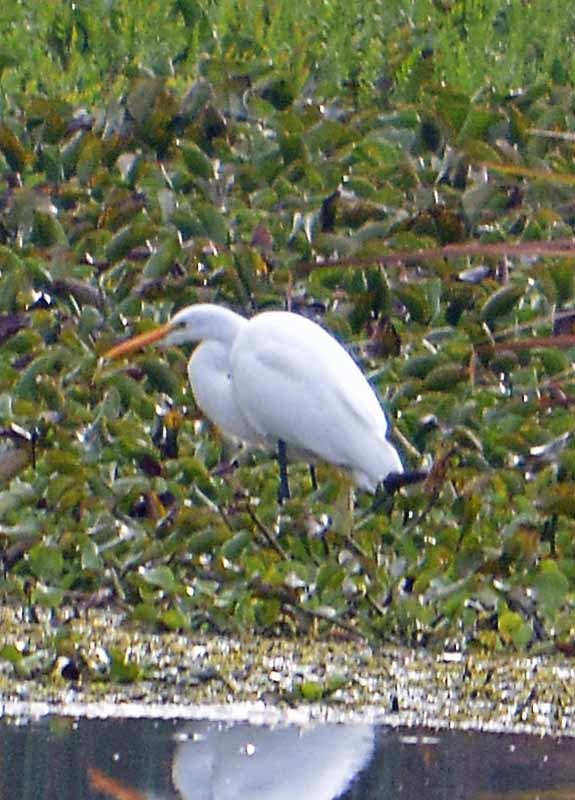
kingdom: Animalia
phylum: Chordata
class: Aves
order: Pelecaniformes
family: Ardeidae
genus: Ardea
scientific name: Ardea alba
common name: Great egret
